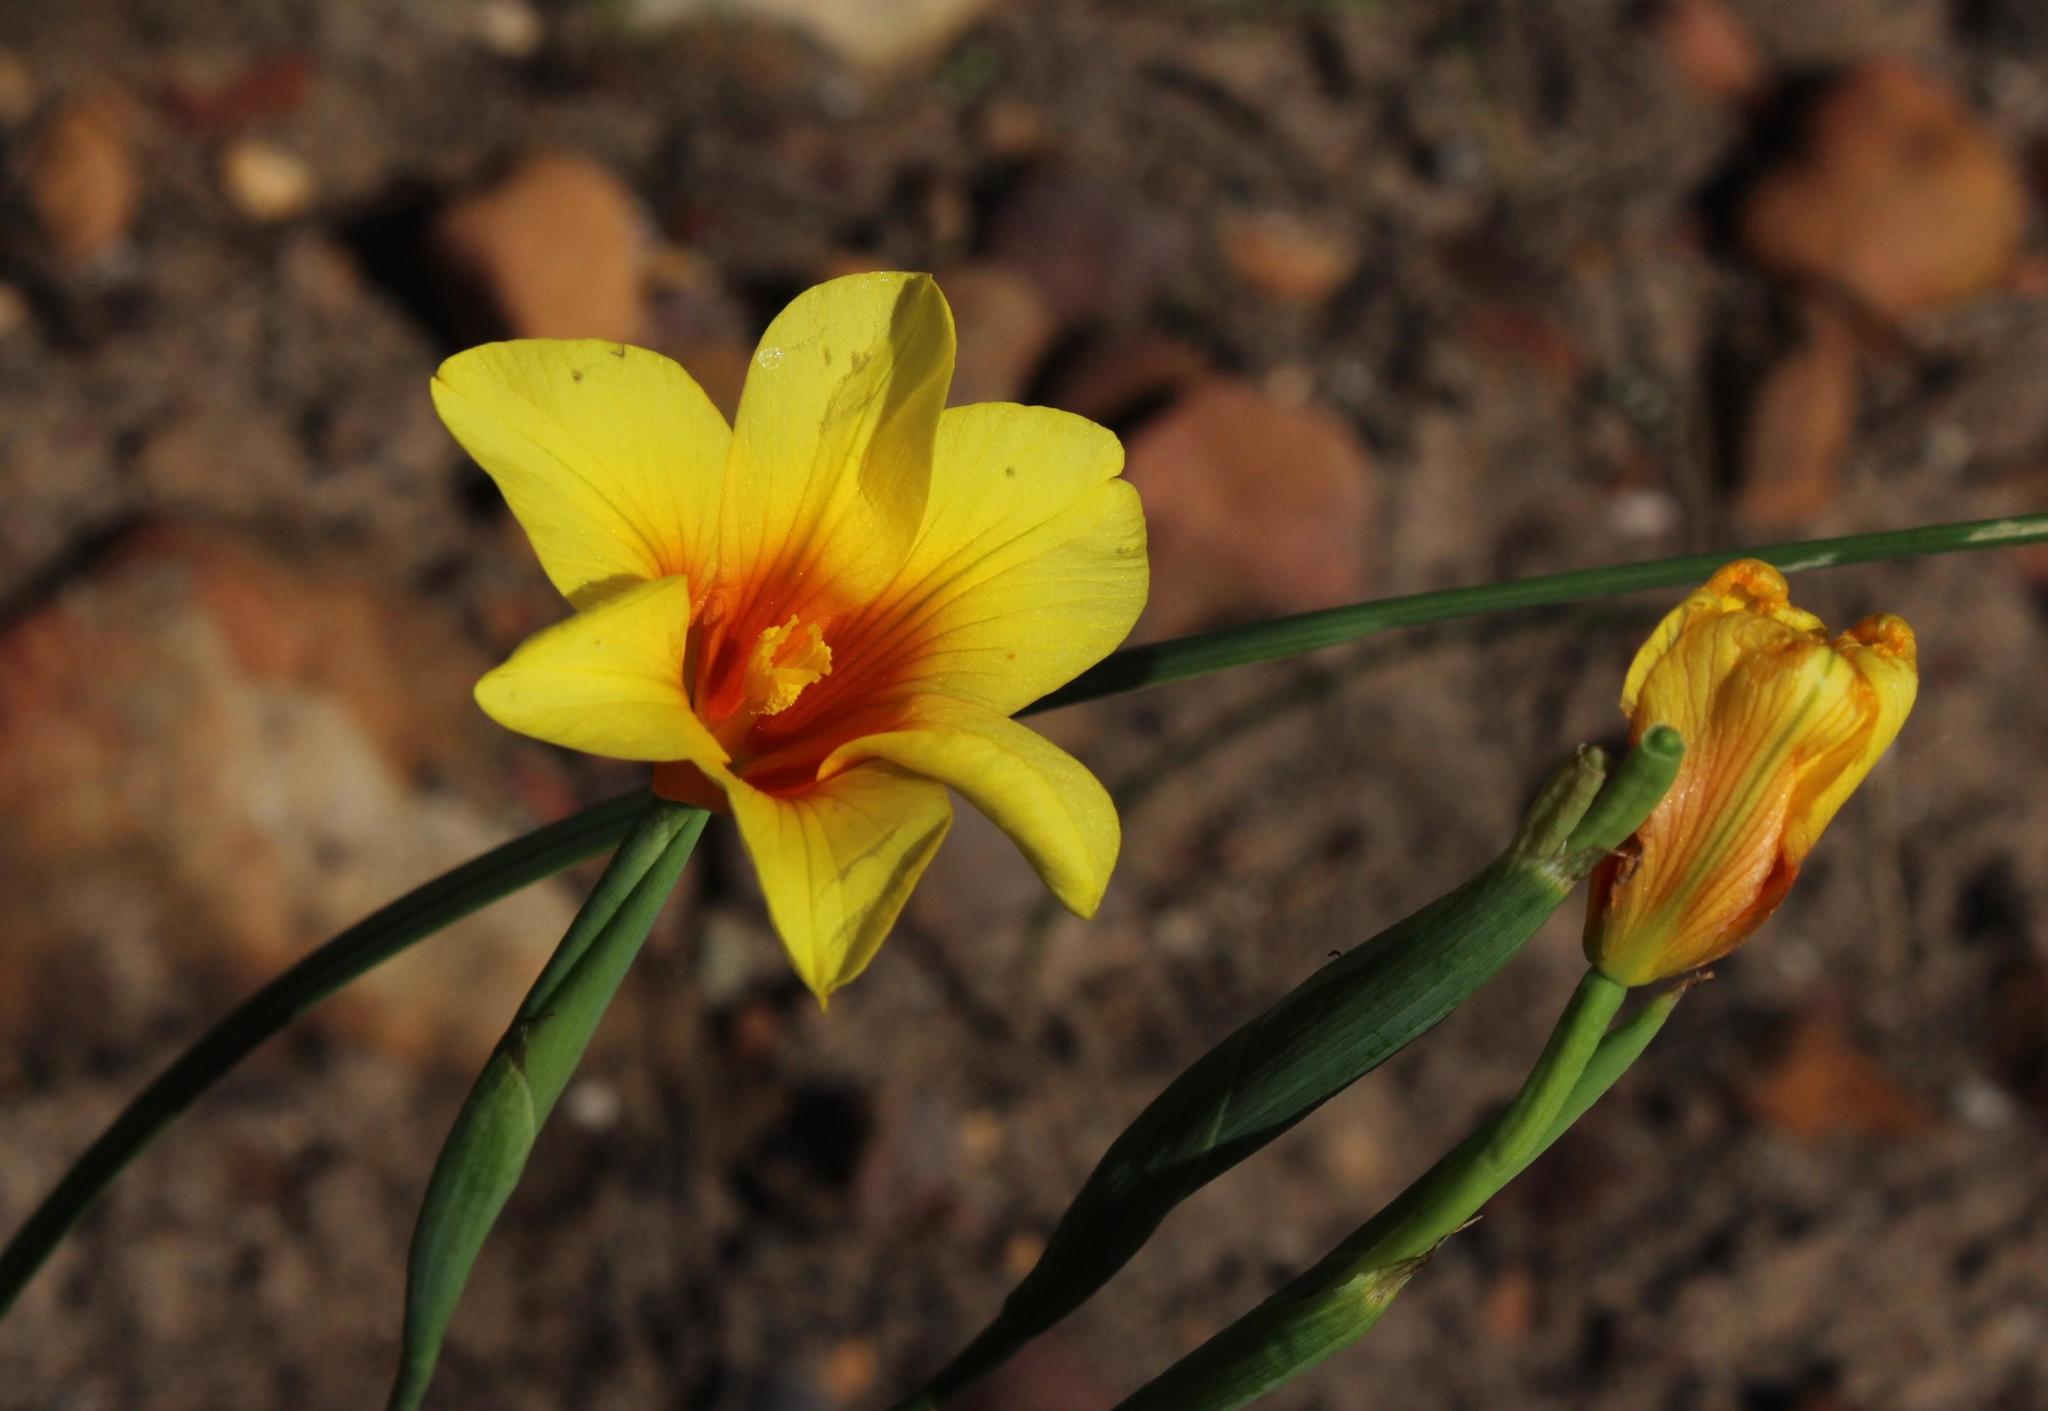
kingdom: Plantae
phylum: Tracheophyta
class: Liliopsida
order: Asparagales
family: Iridaceae
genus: Moraea
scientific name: Moraea ochroleuca
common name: Red tulp
